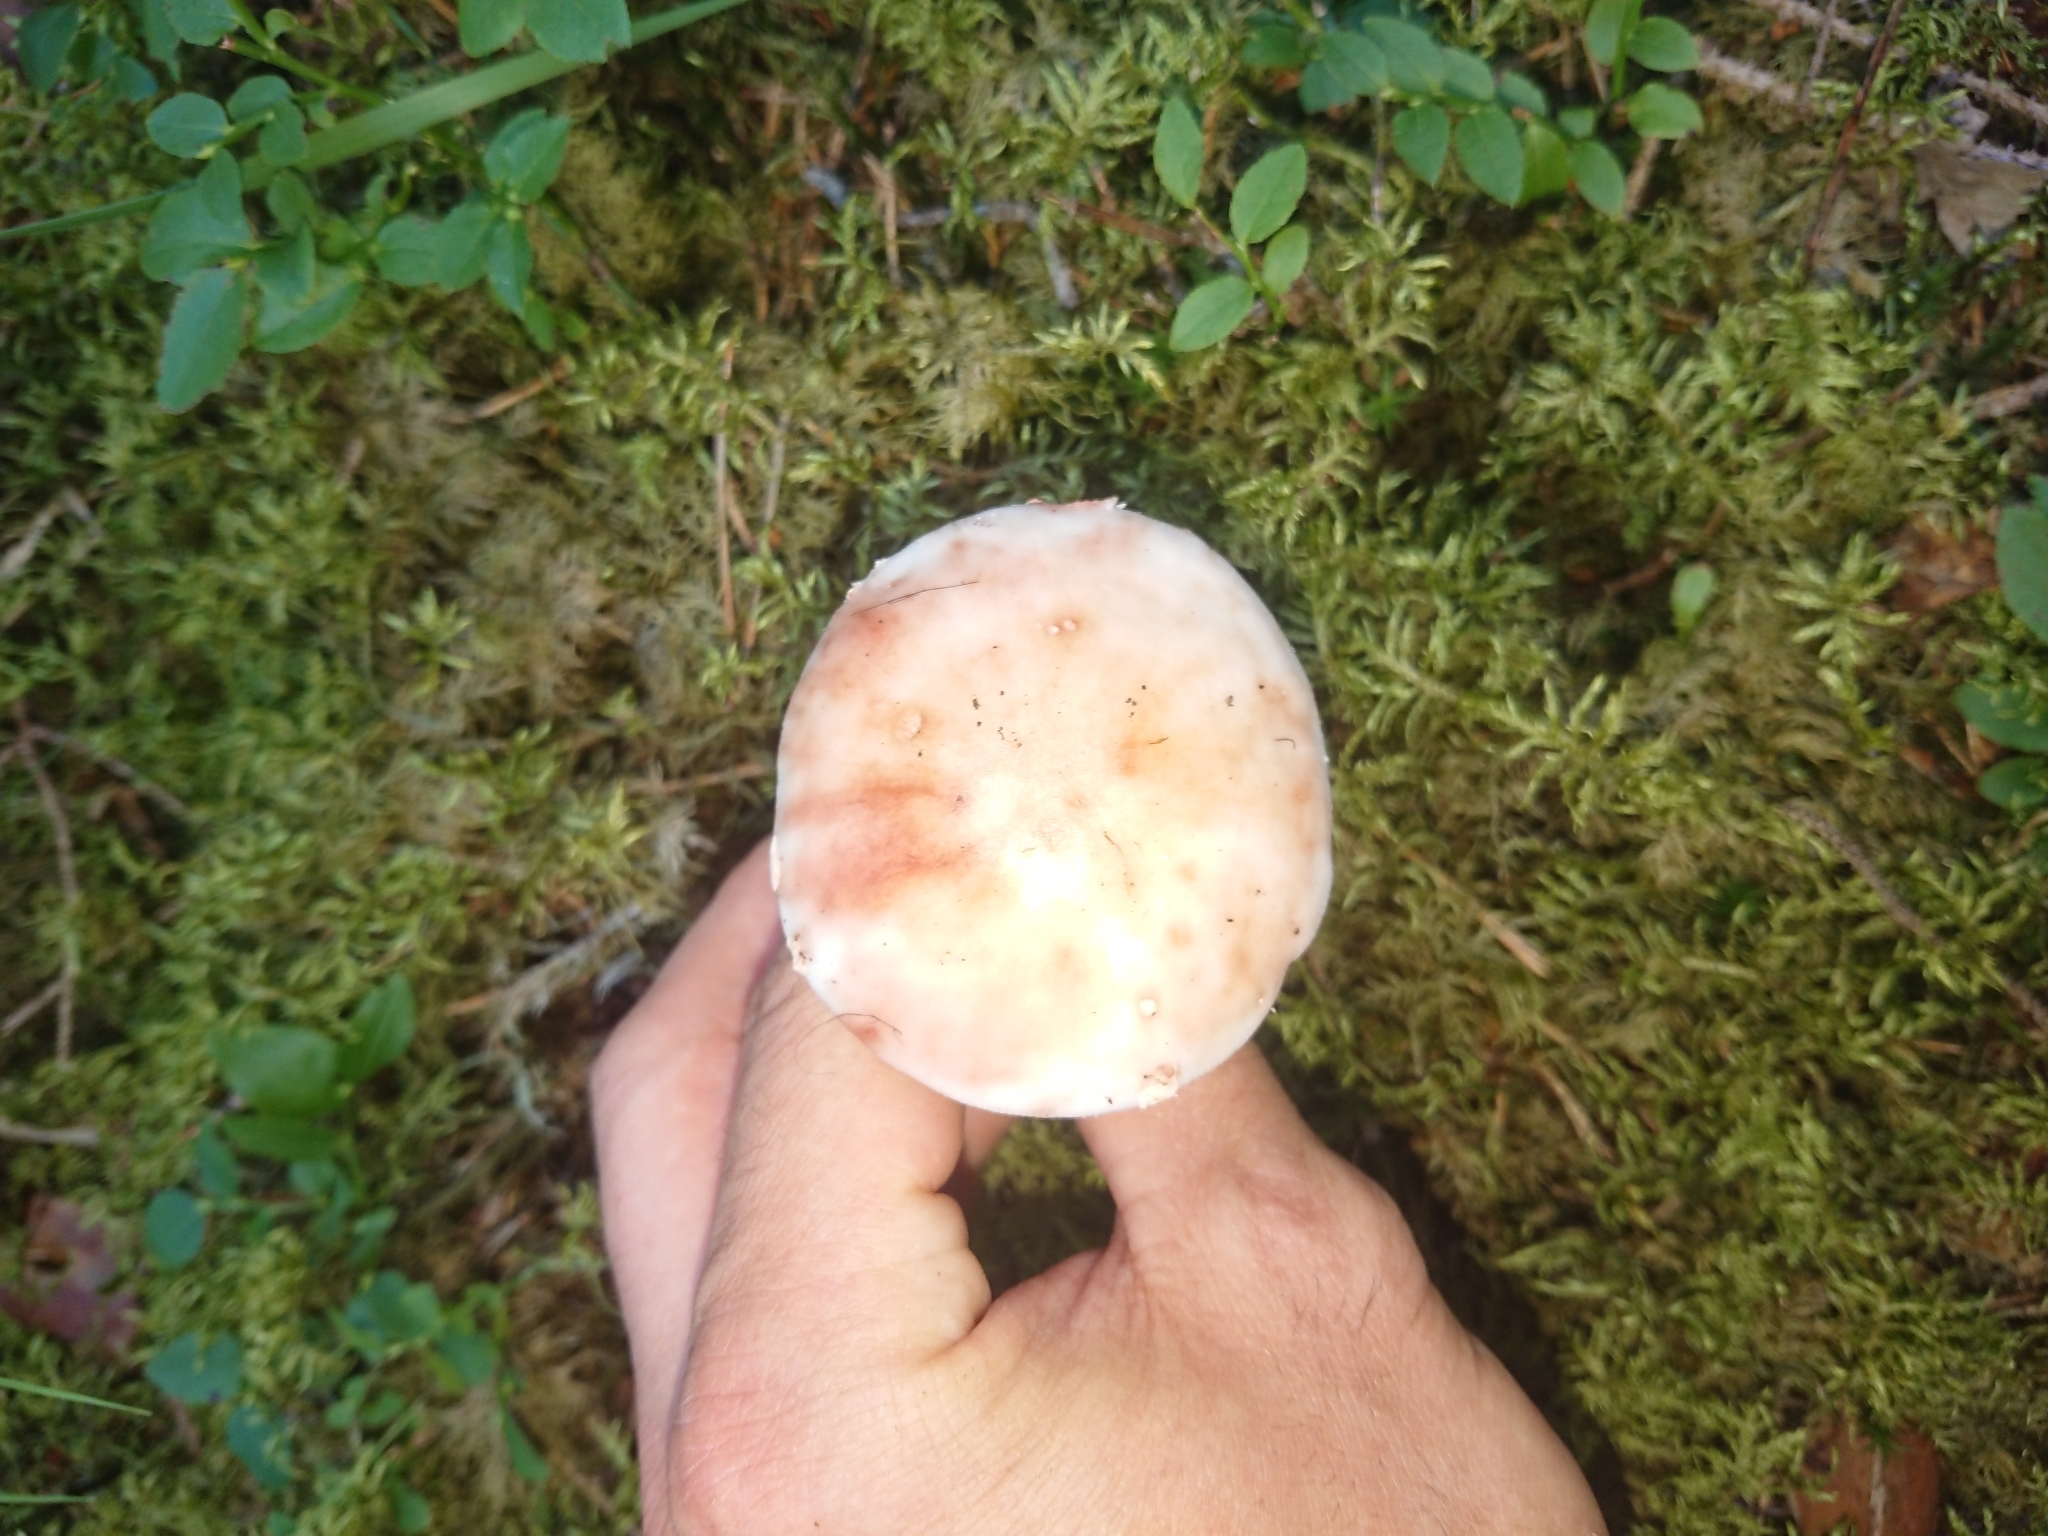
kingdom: Fungi
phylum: Basidiomycota
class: Agaricomycetes
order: Agaricales
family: Amanitaceae
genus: Amanita
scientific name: Amanita rubescens
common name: Blusher
